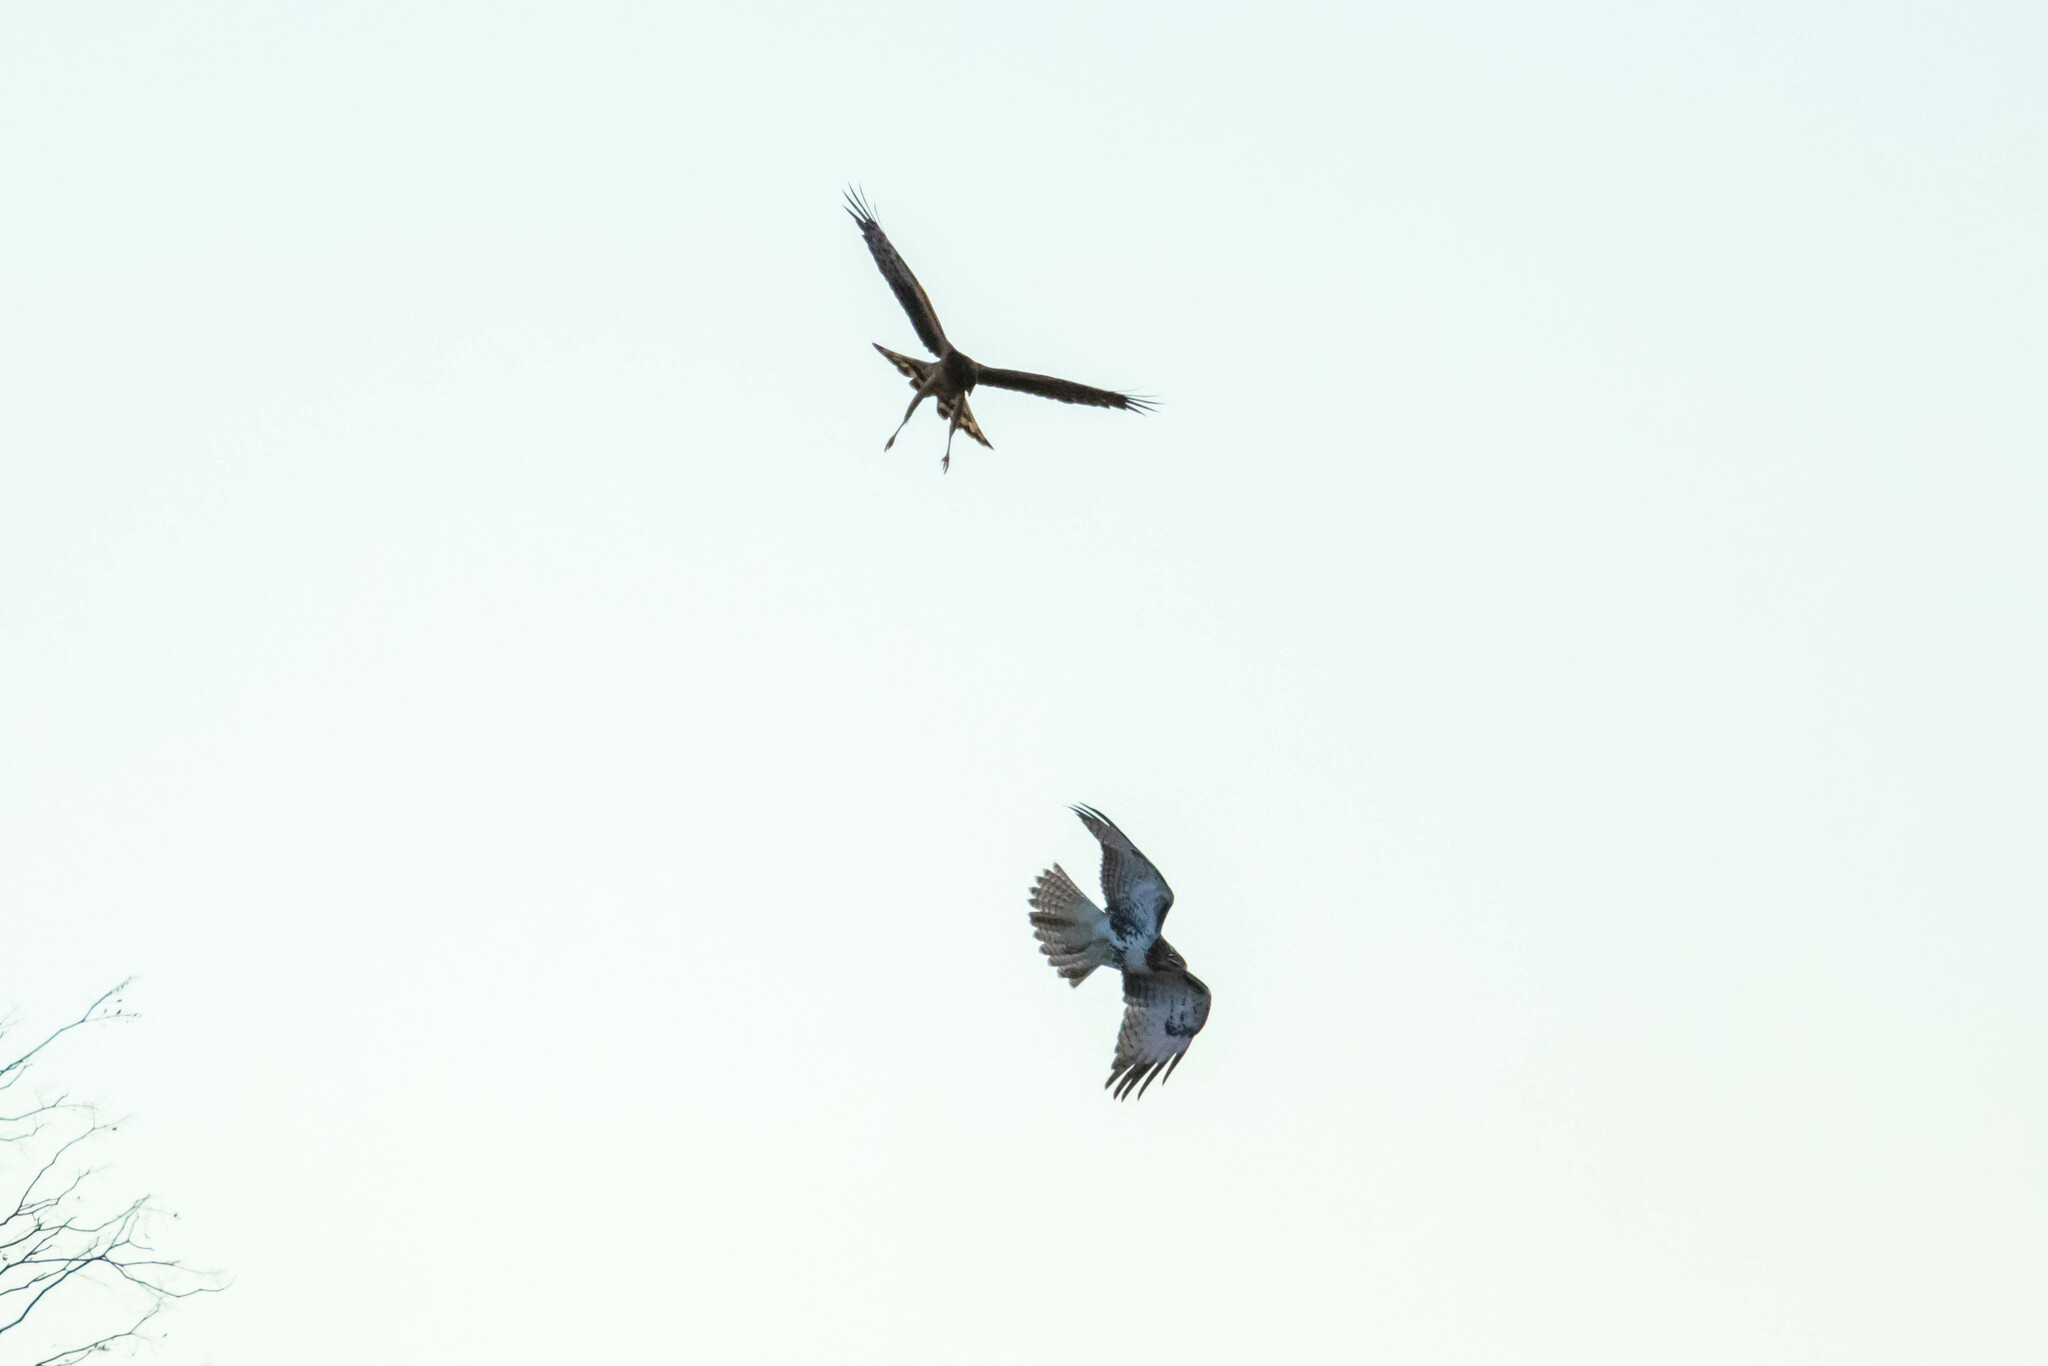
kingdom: Animalia
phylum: Chordata
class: Aves
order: Accipitriformes
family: Accipitridae
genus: Circus
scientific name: Circus cyaneus
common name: Hen harrier
